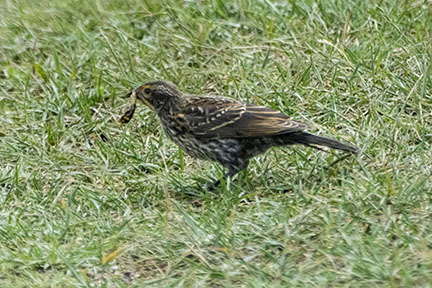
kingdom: Animalia
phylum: Chordata
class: Aves
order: Passeriformes
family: Icteridae
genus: Agelaius
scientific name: Agelaius phoeniceus
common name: Red-winged blackbird
